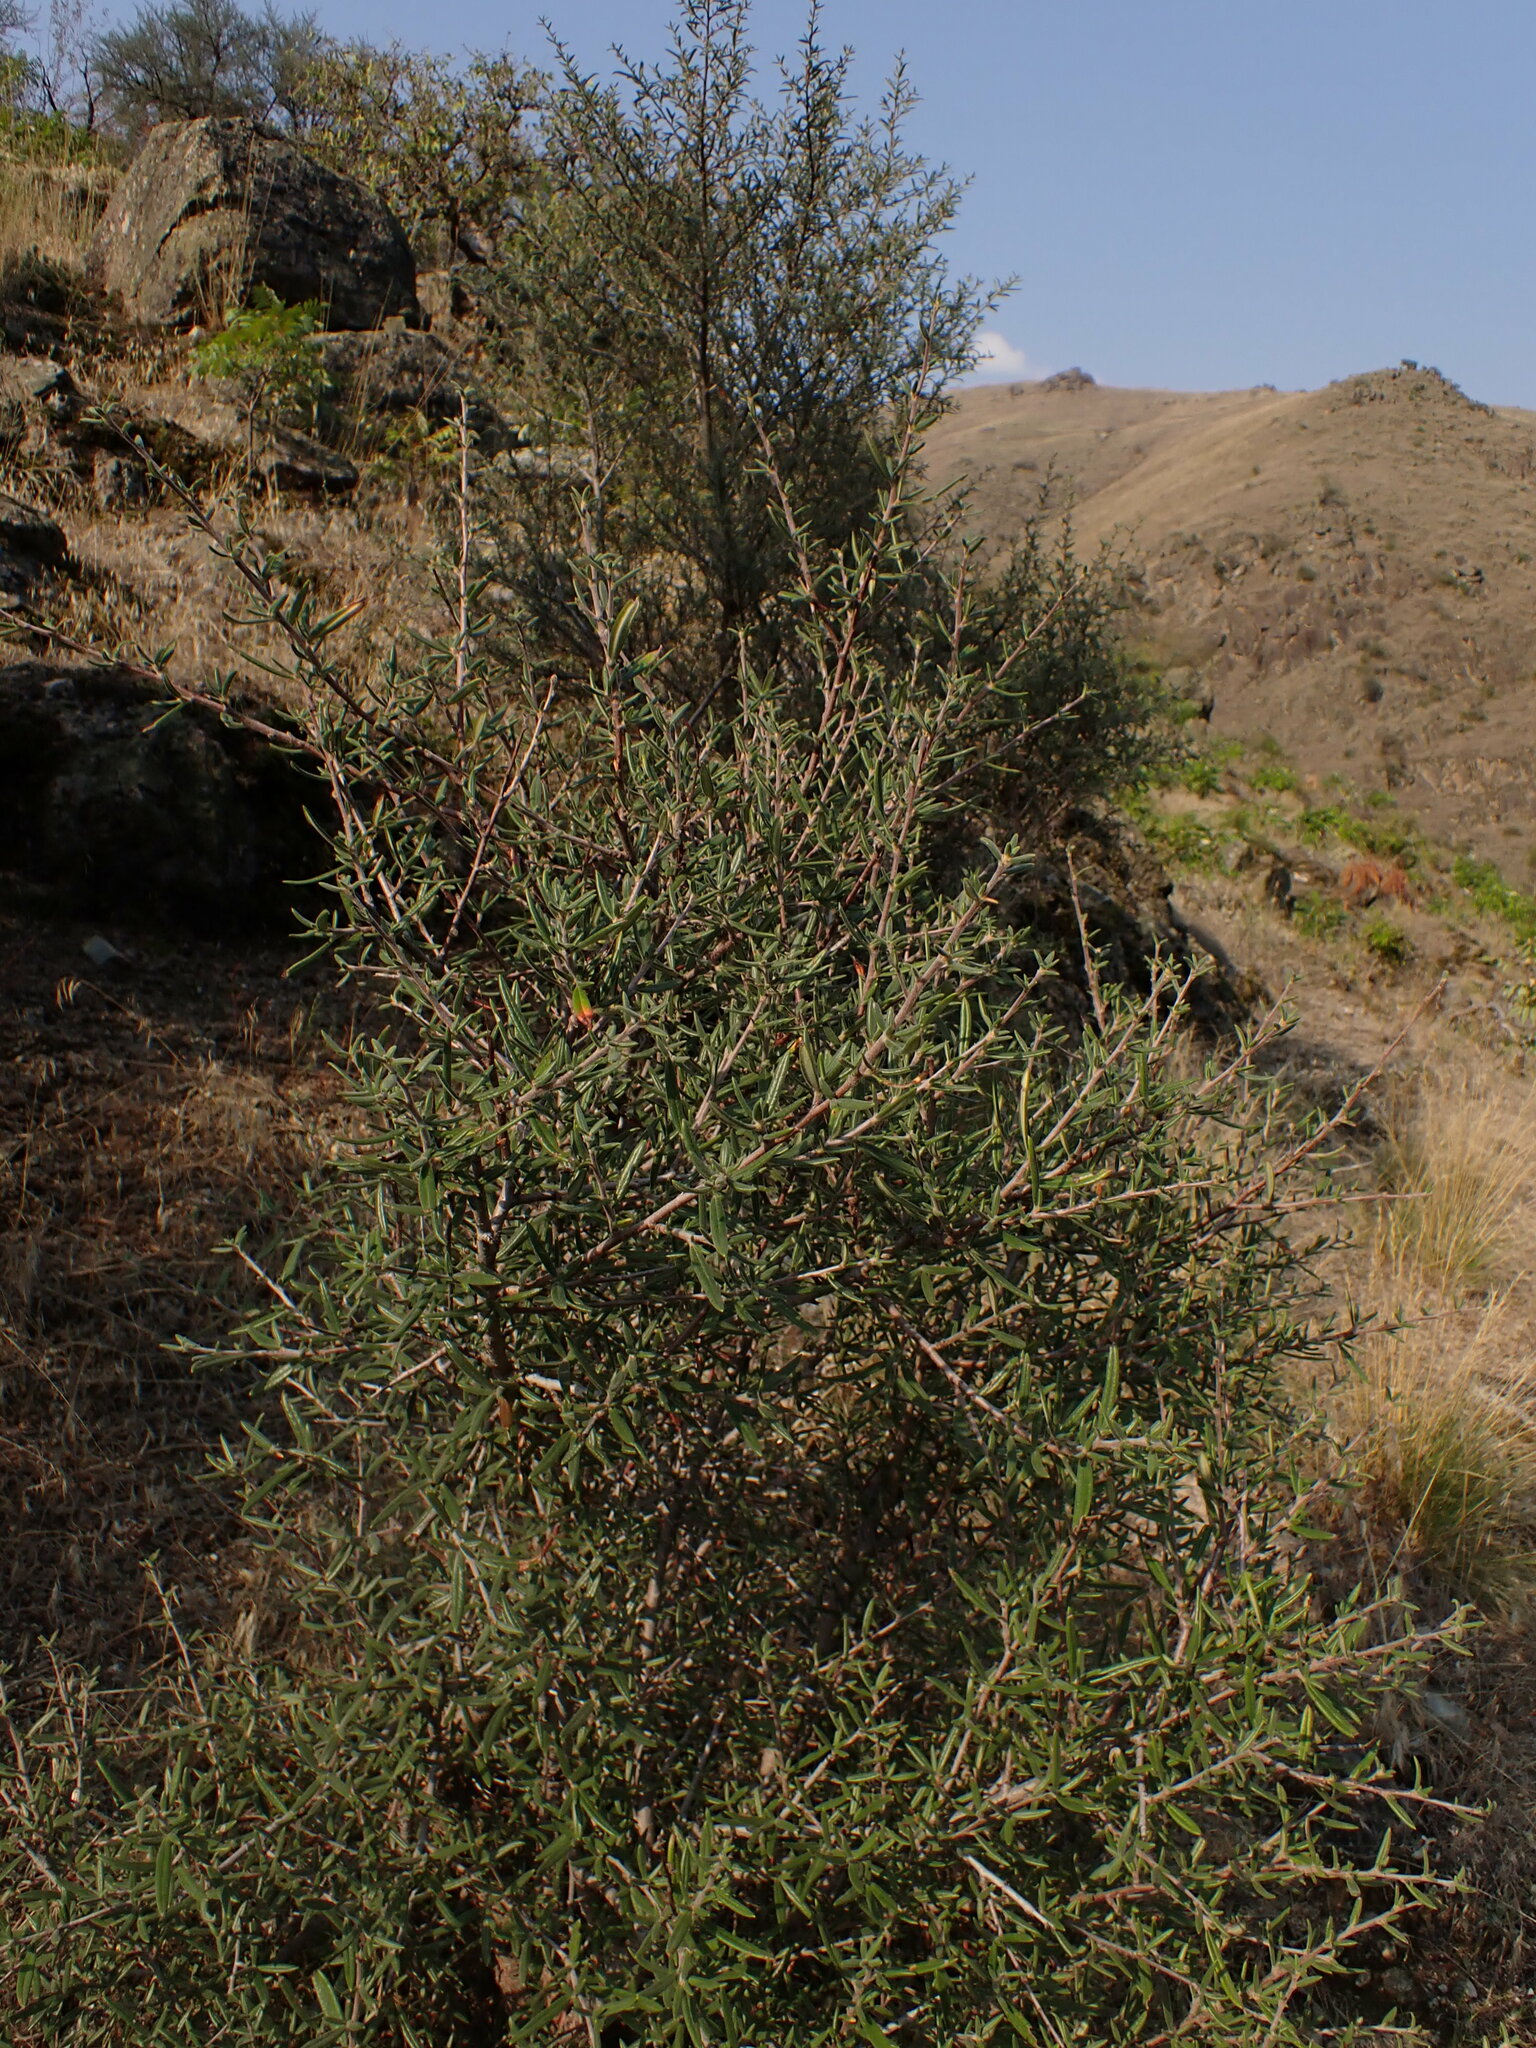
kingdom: Plantae
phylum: Tracheophyta
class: Magnoliopsida
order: Rosales
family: Rosaceae
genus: Cercocarpus
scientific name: Cercocarpus ledifolius
